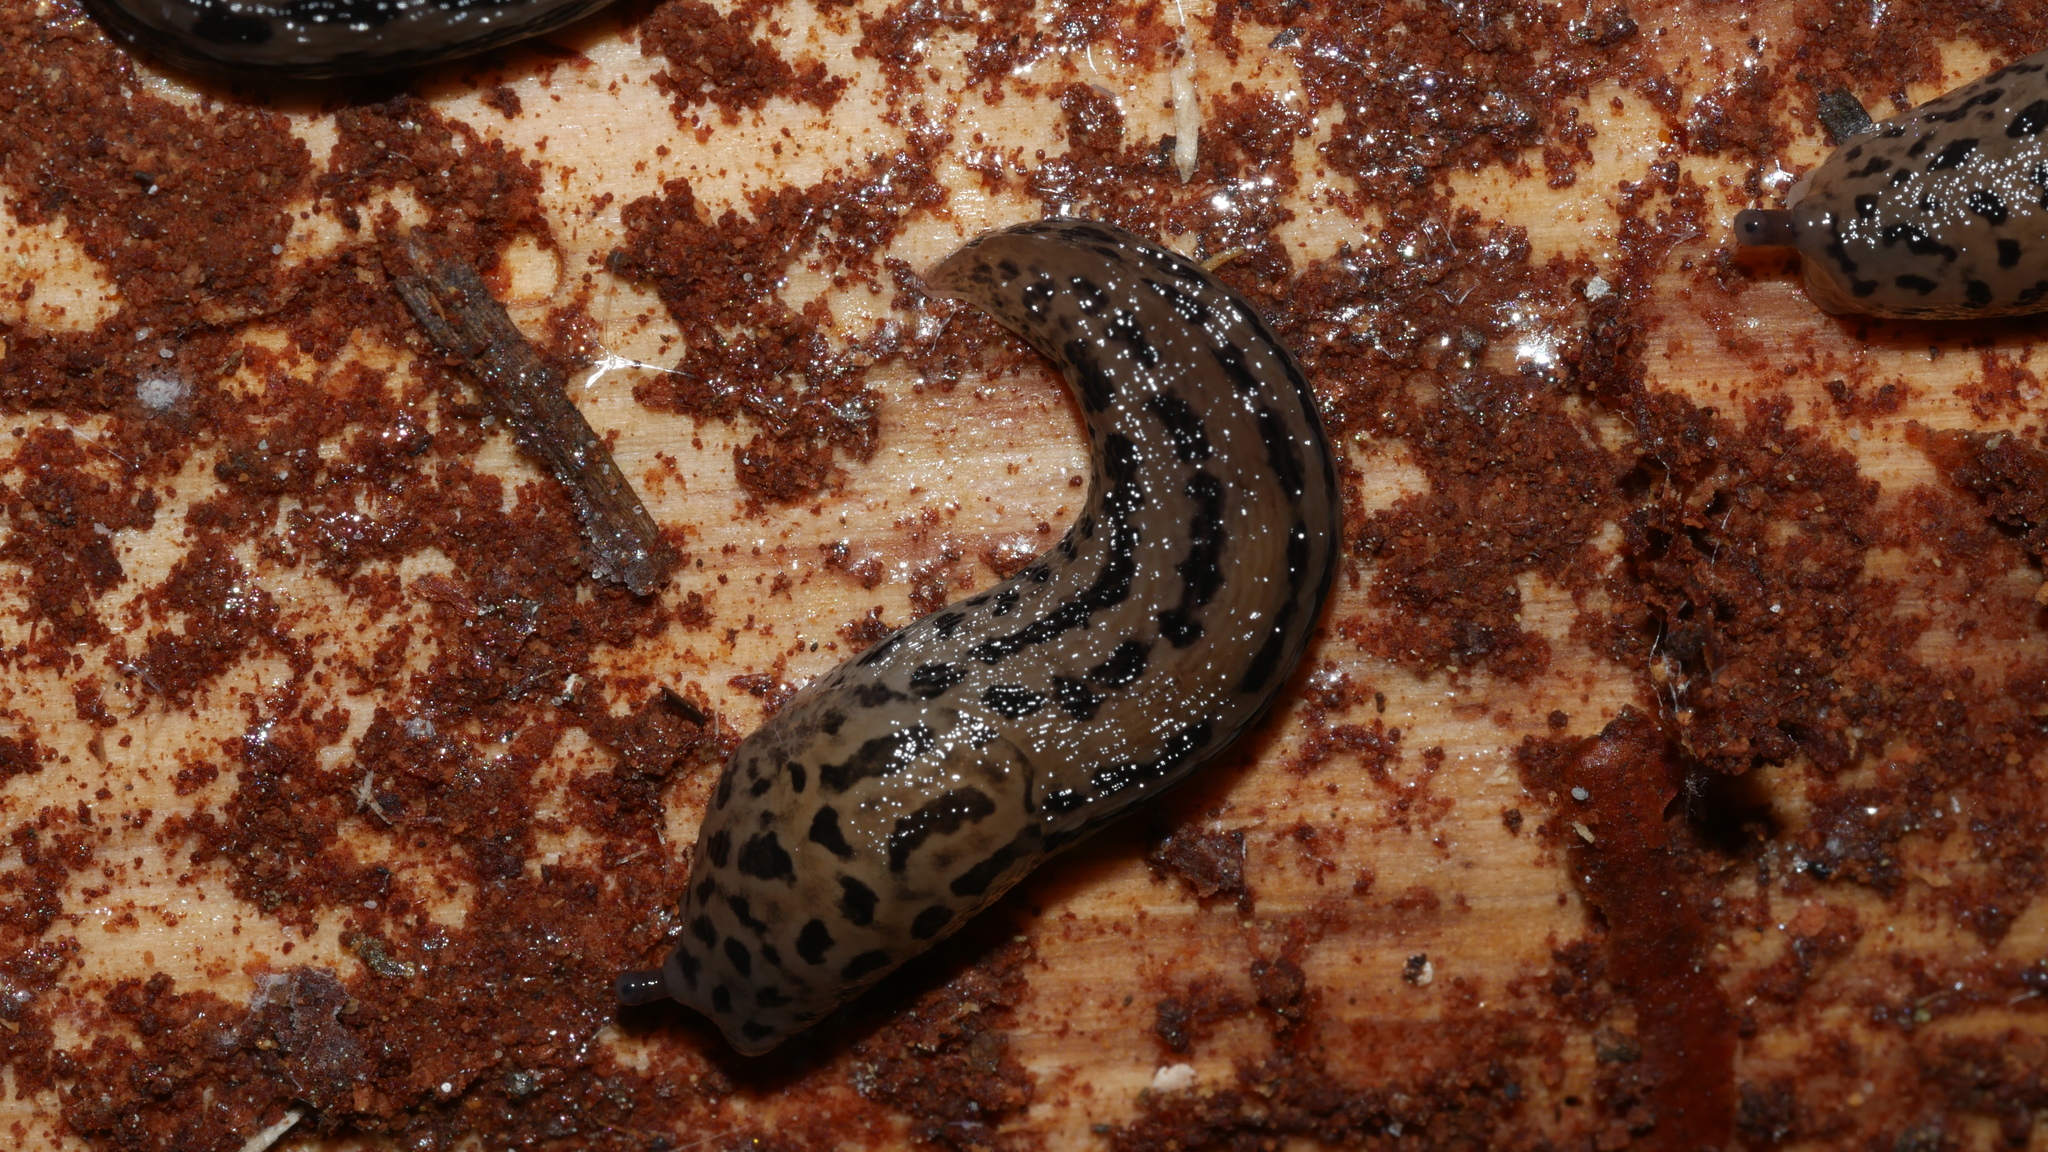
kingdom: Animalia
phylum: Mollusca
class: Gastropoda
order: Stylommatophora
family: Limacidae
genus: Limax
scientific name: Limax maximus
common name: Great grey slug
